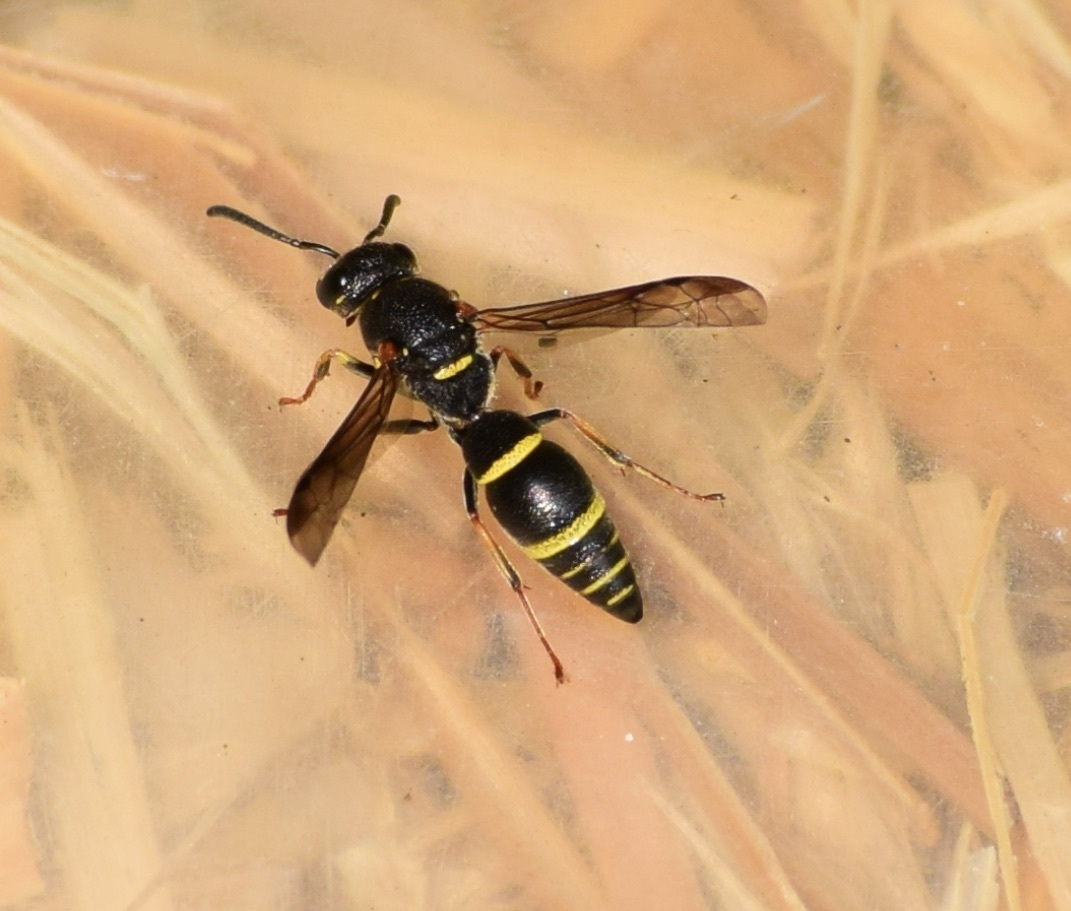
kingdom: Animalia
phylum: Arthropoda
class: Insecta
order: Hymenoptera
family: Eumenidae
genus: Parancistrocerus
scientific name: Parancistrocerus pensylvanicus
